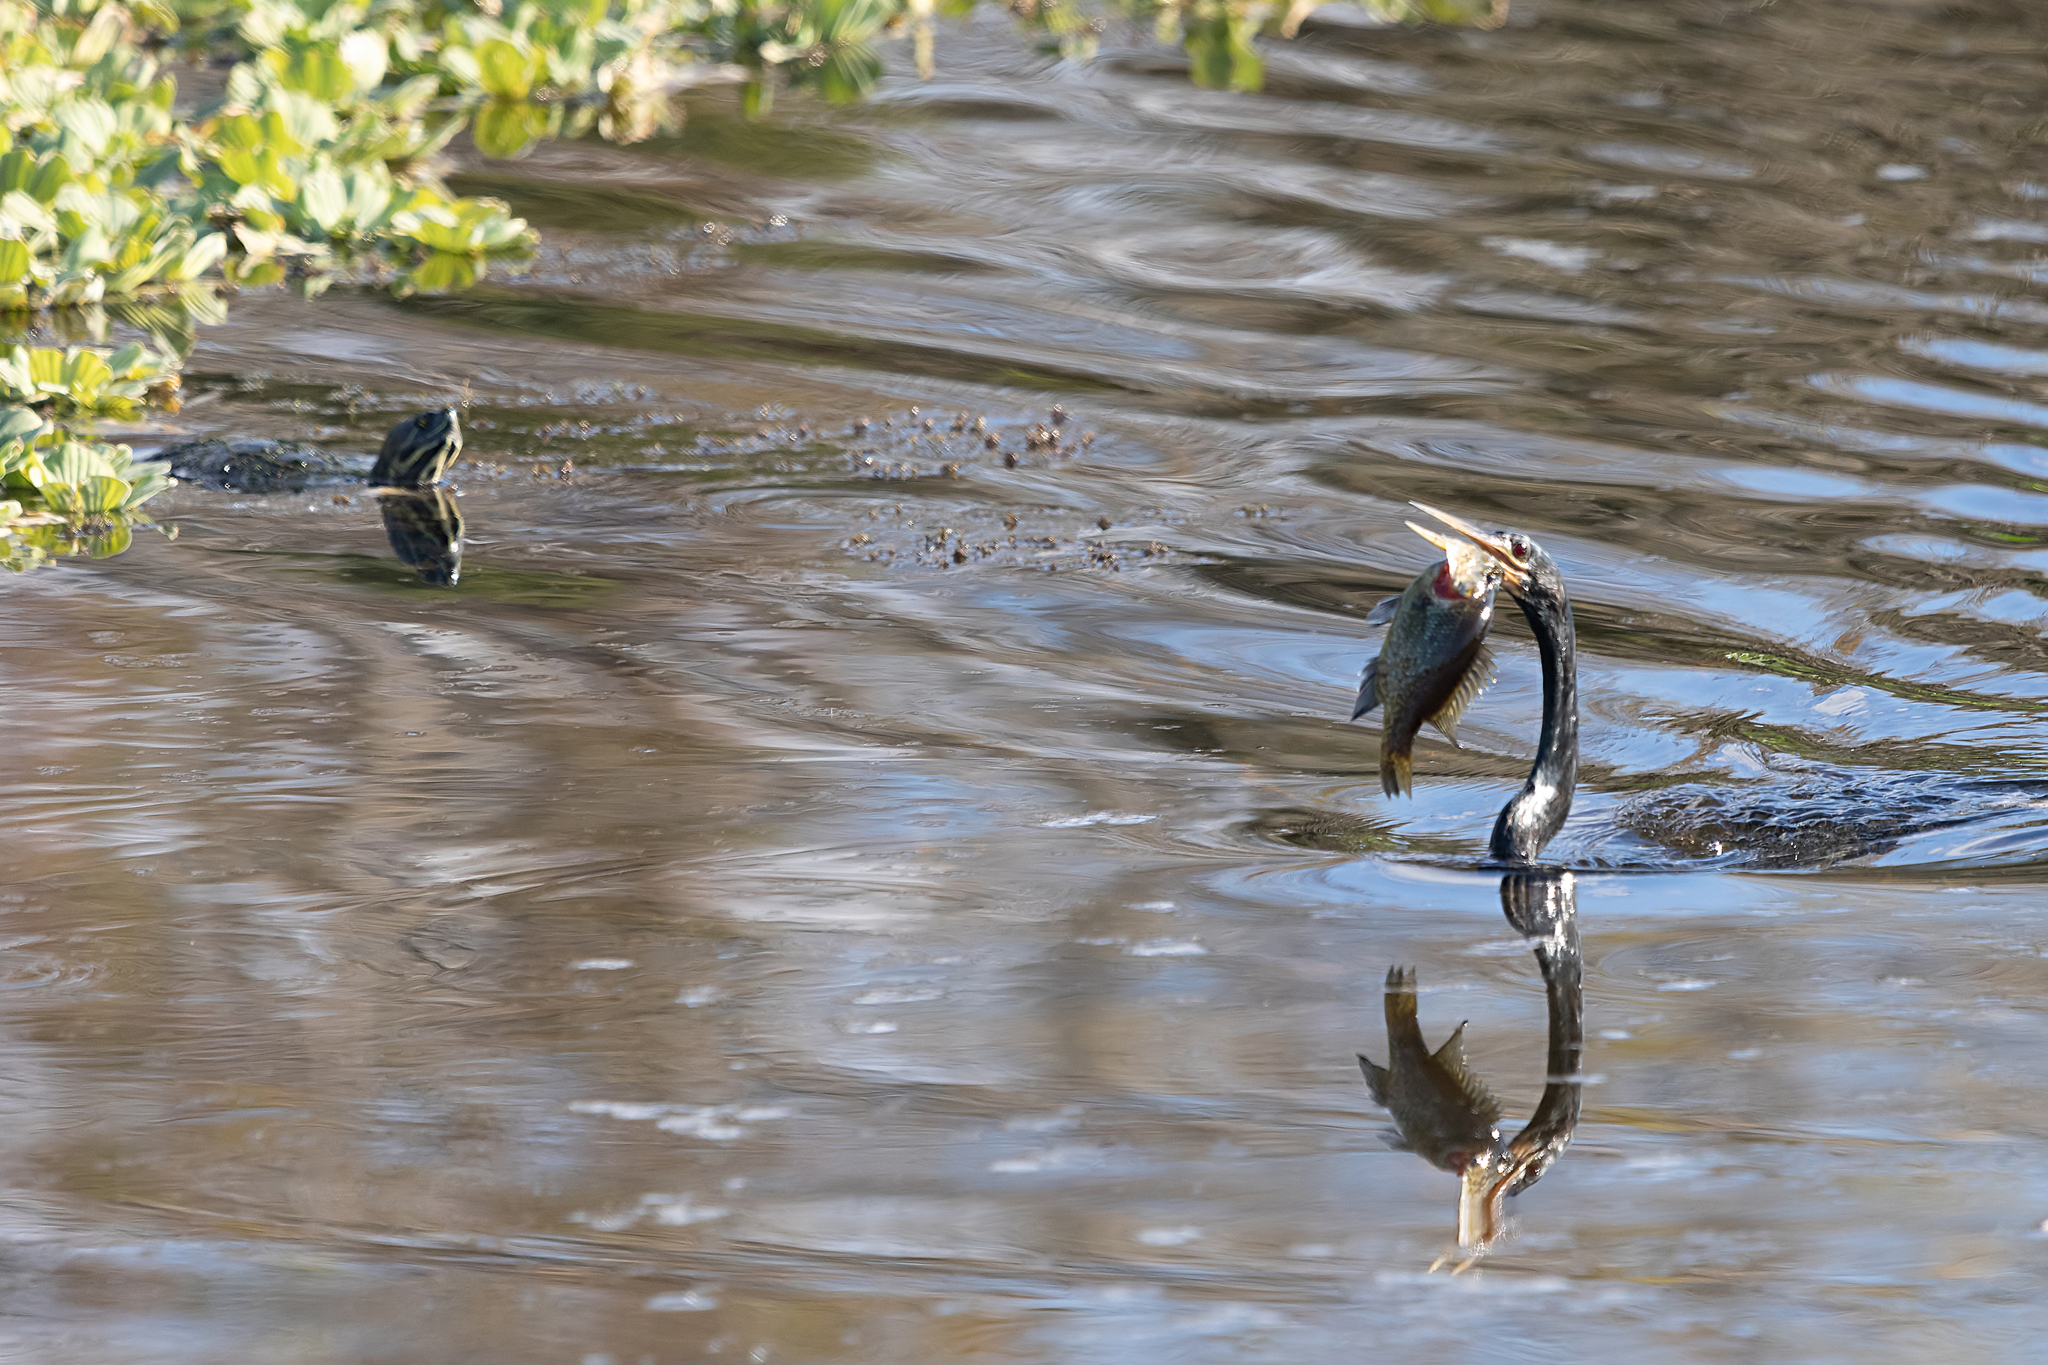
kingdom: Animalia
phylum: Chordata
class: Aves
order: Suliformes
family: Anhingidae
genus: Anhinga
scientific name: Anhinga anhinga
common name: Anhinga
